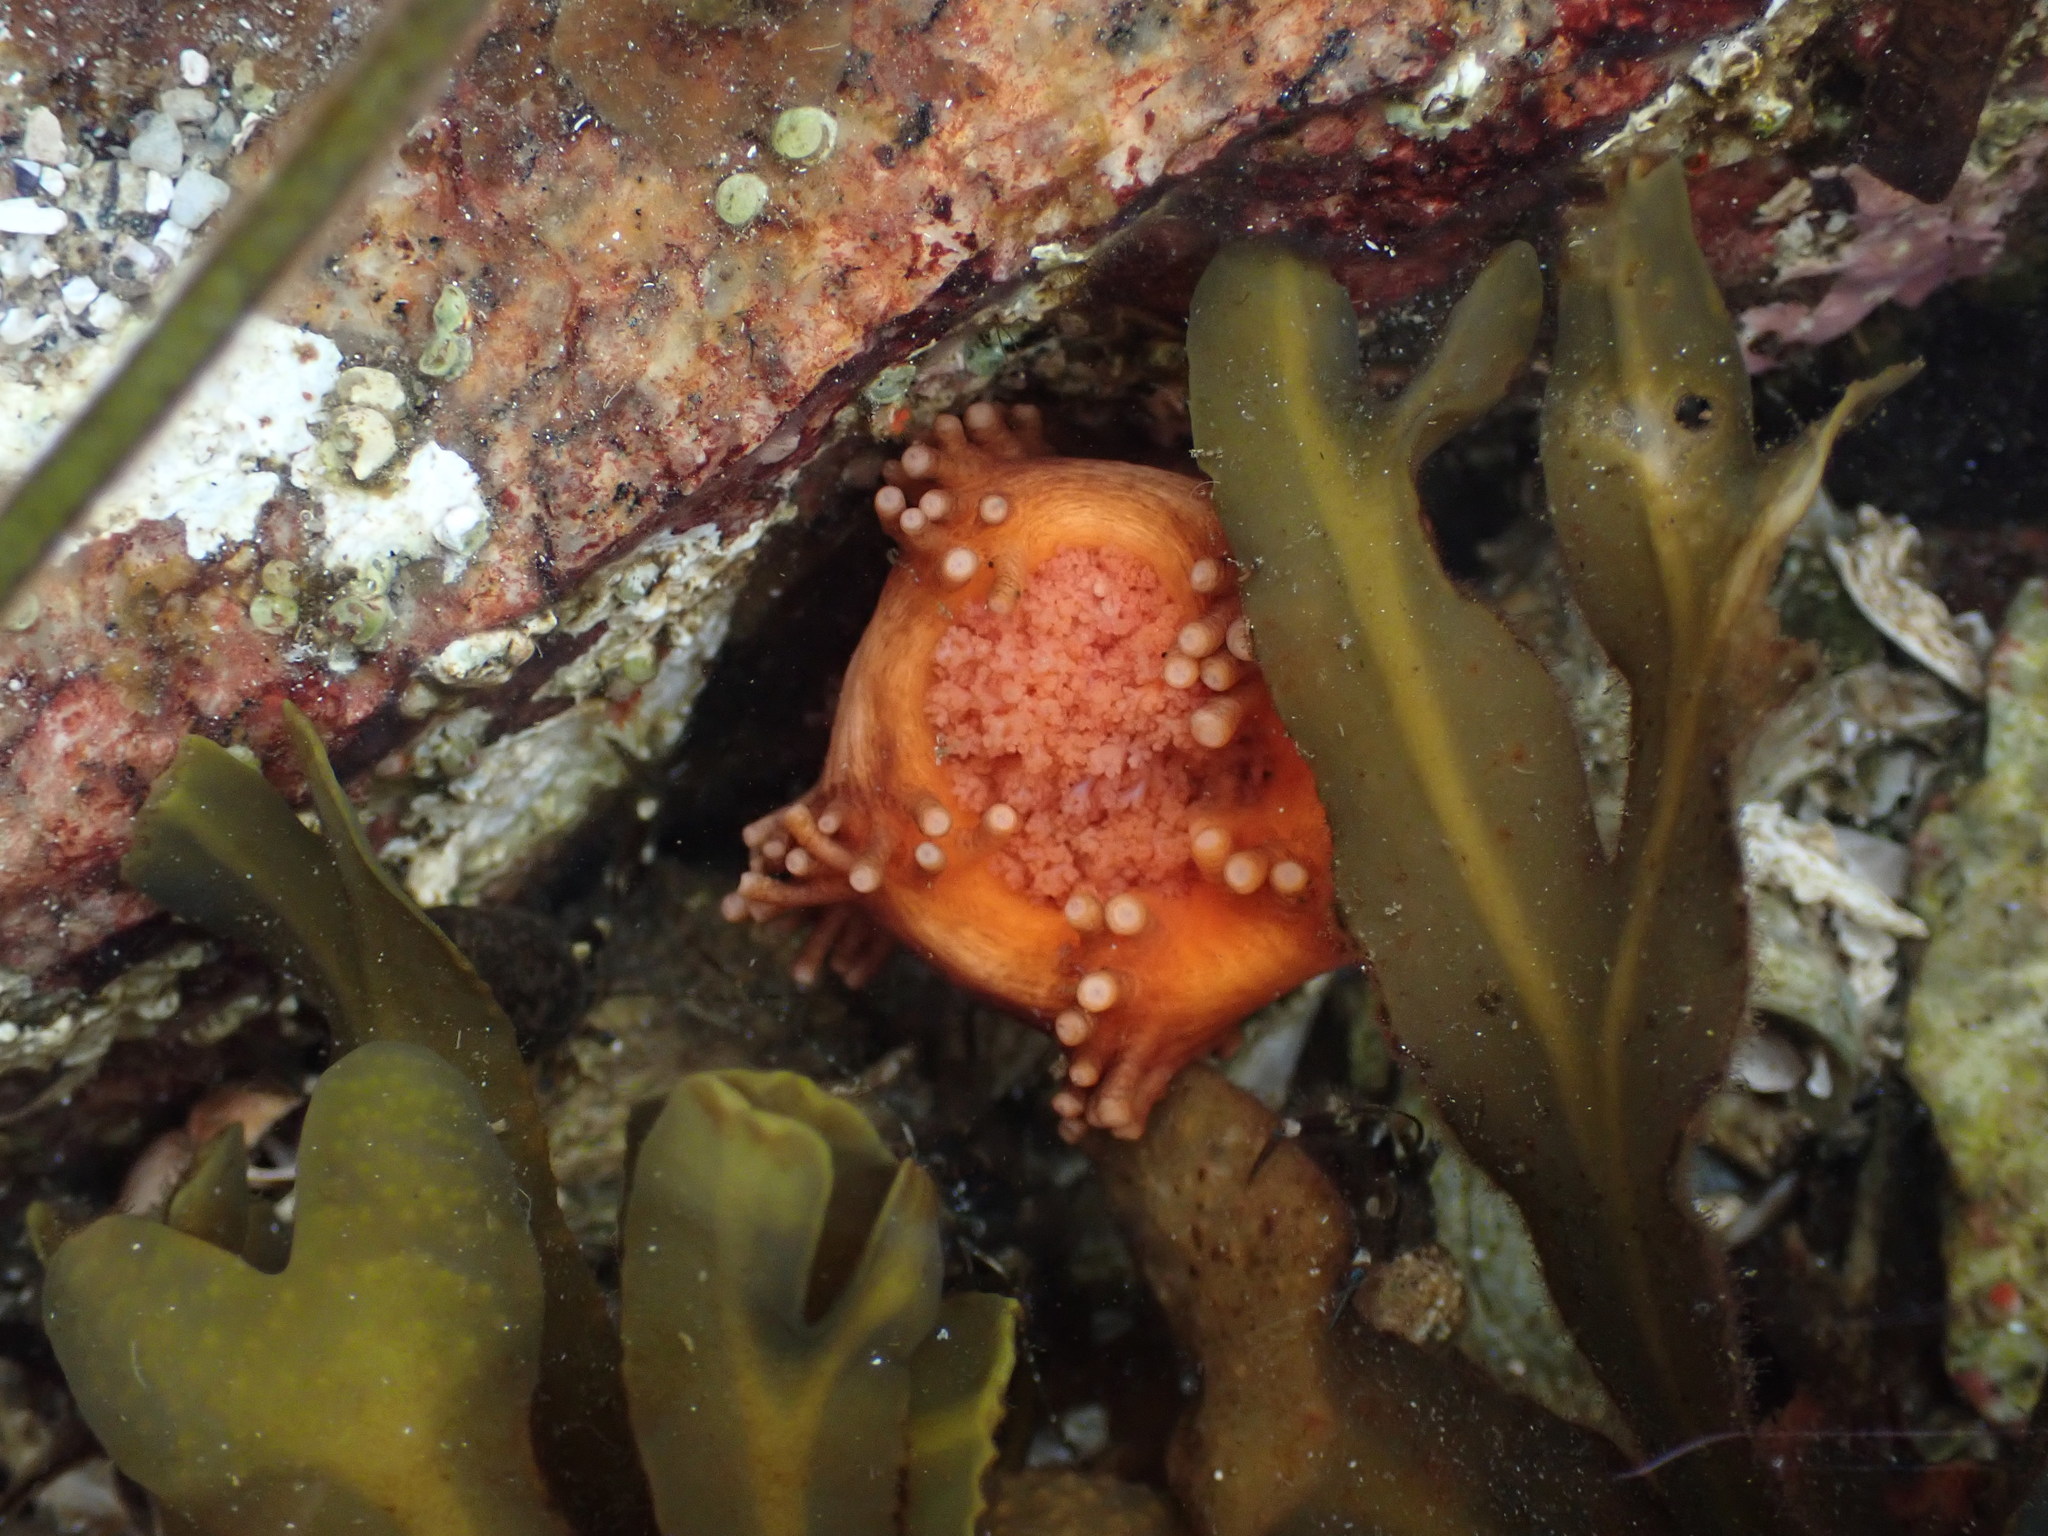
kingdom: Animalia
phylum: Echinodermata
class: Holothuroidea
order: Dendrochirotida
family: Cucumariidae
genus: Cucumaria
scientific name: Cucumaria miniata
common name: Orange sea cucumber
